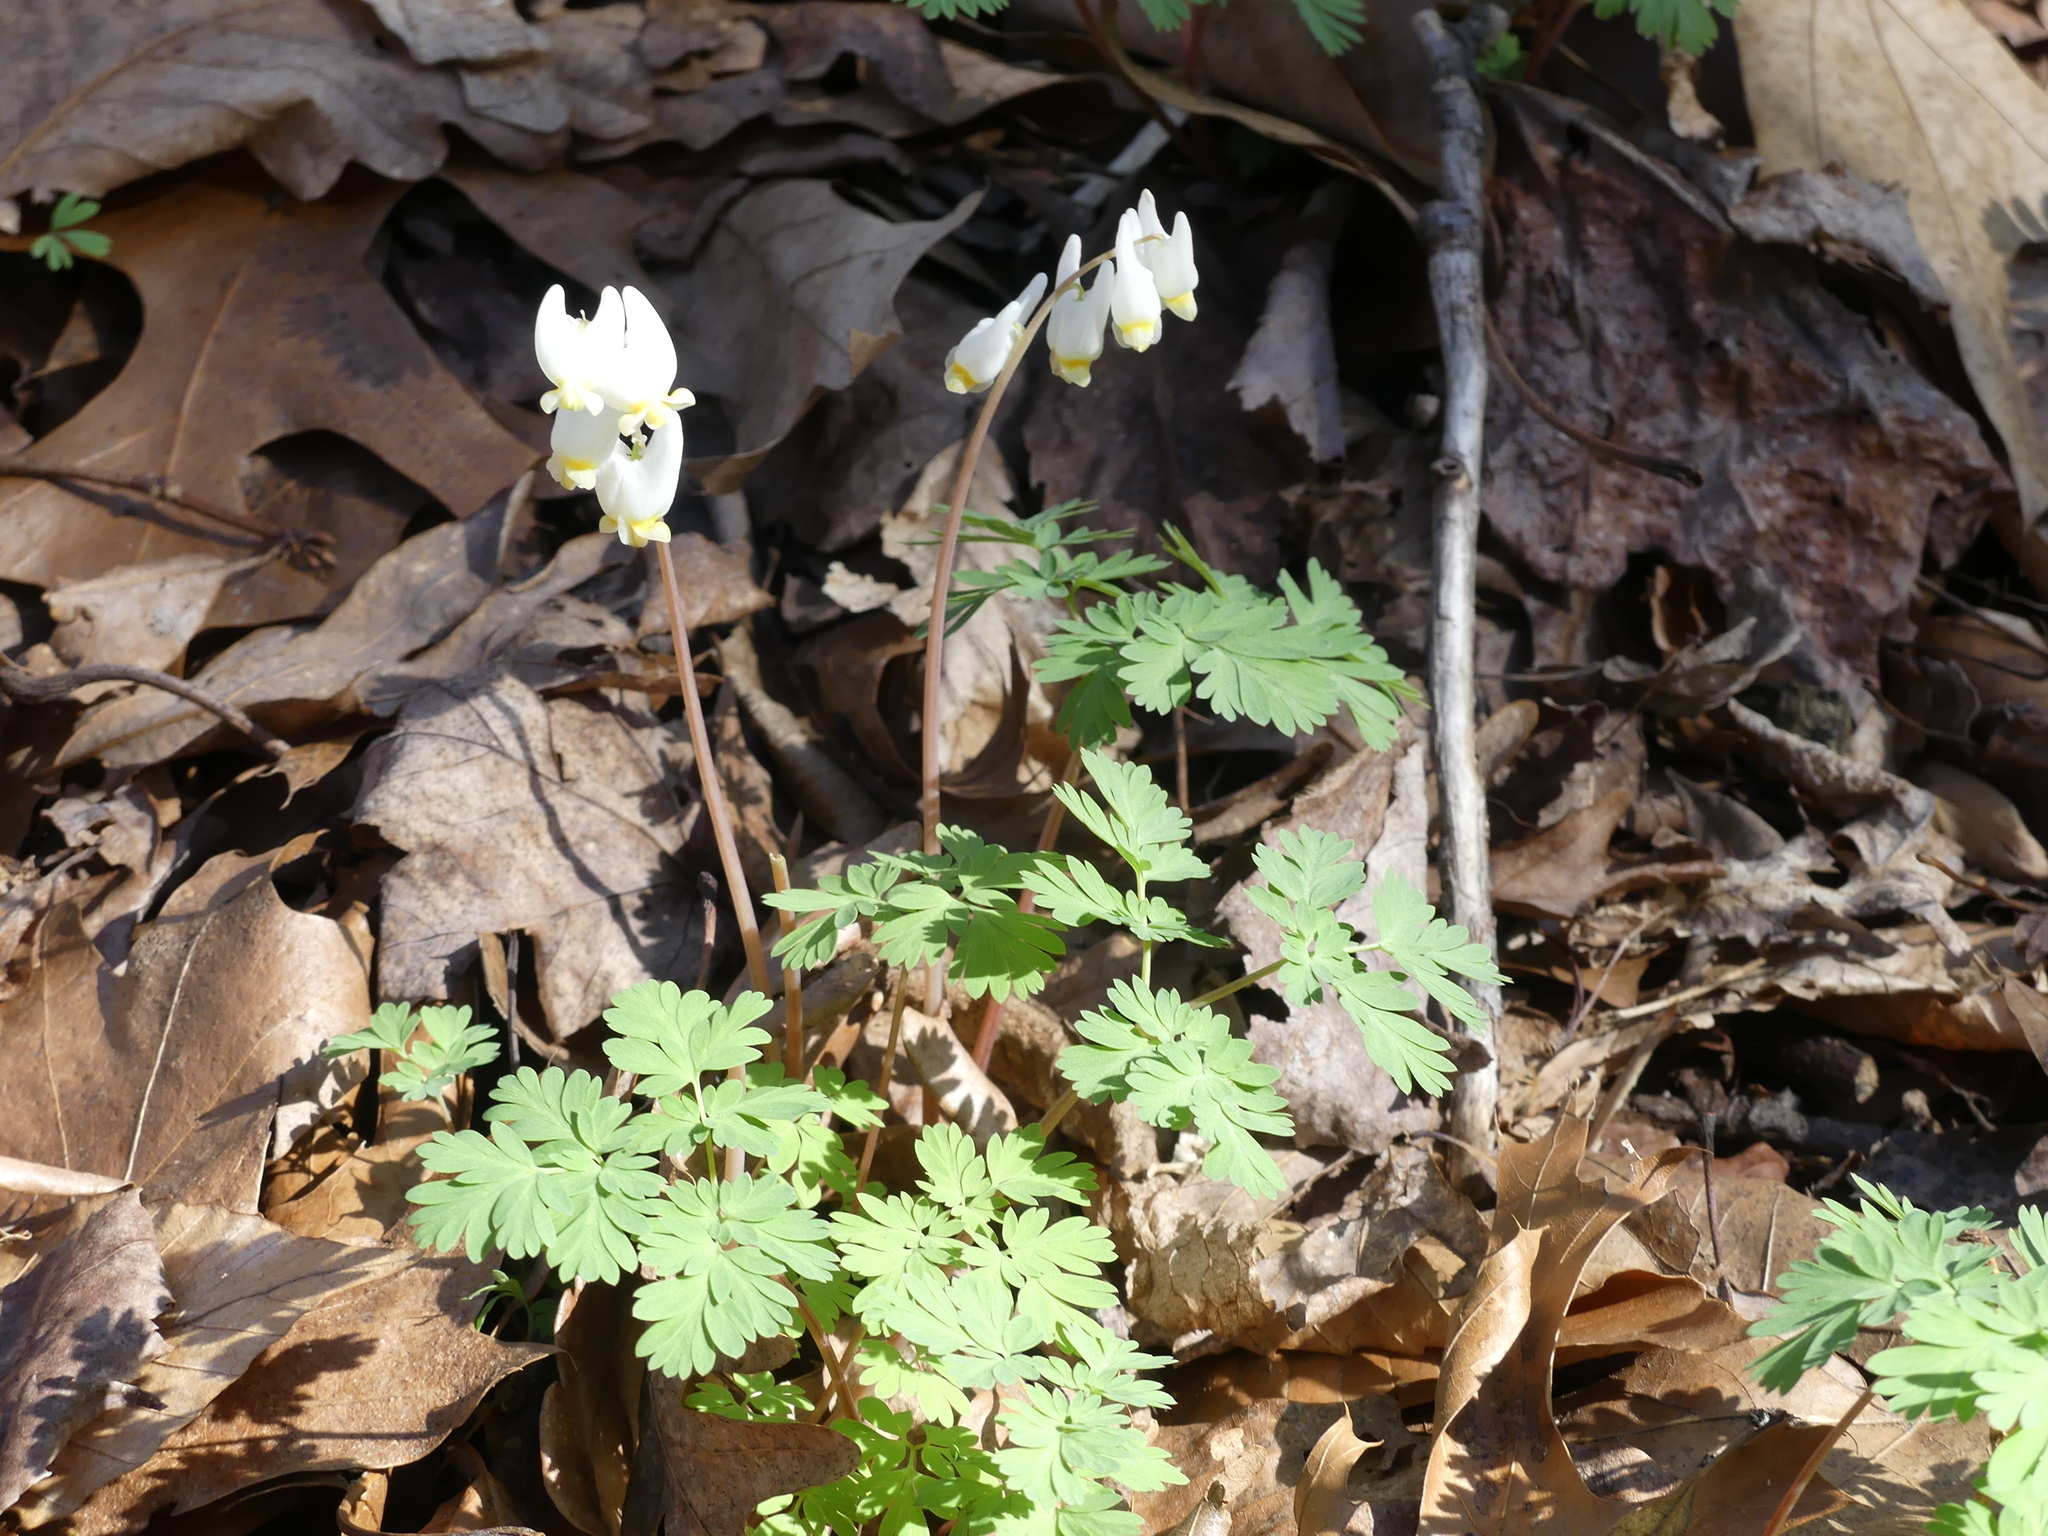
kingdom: Plantae
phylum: Tracheophyta
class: Magnoliopsida
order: Ranunculales
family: Papaveraceae
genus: Dicentra
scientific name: Dicentra cucullaria
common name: Dutchman's breeches
